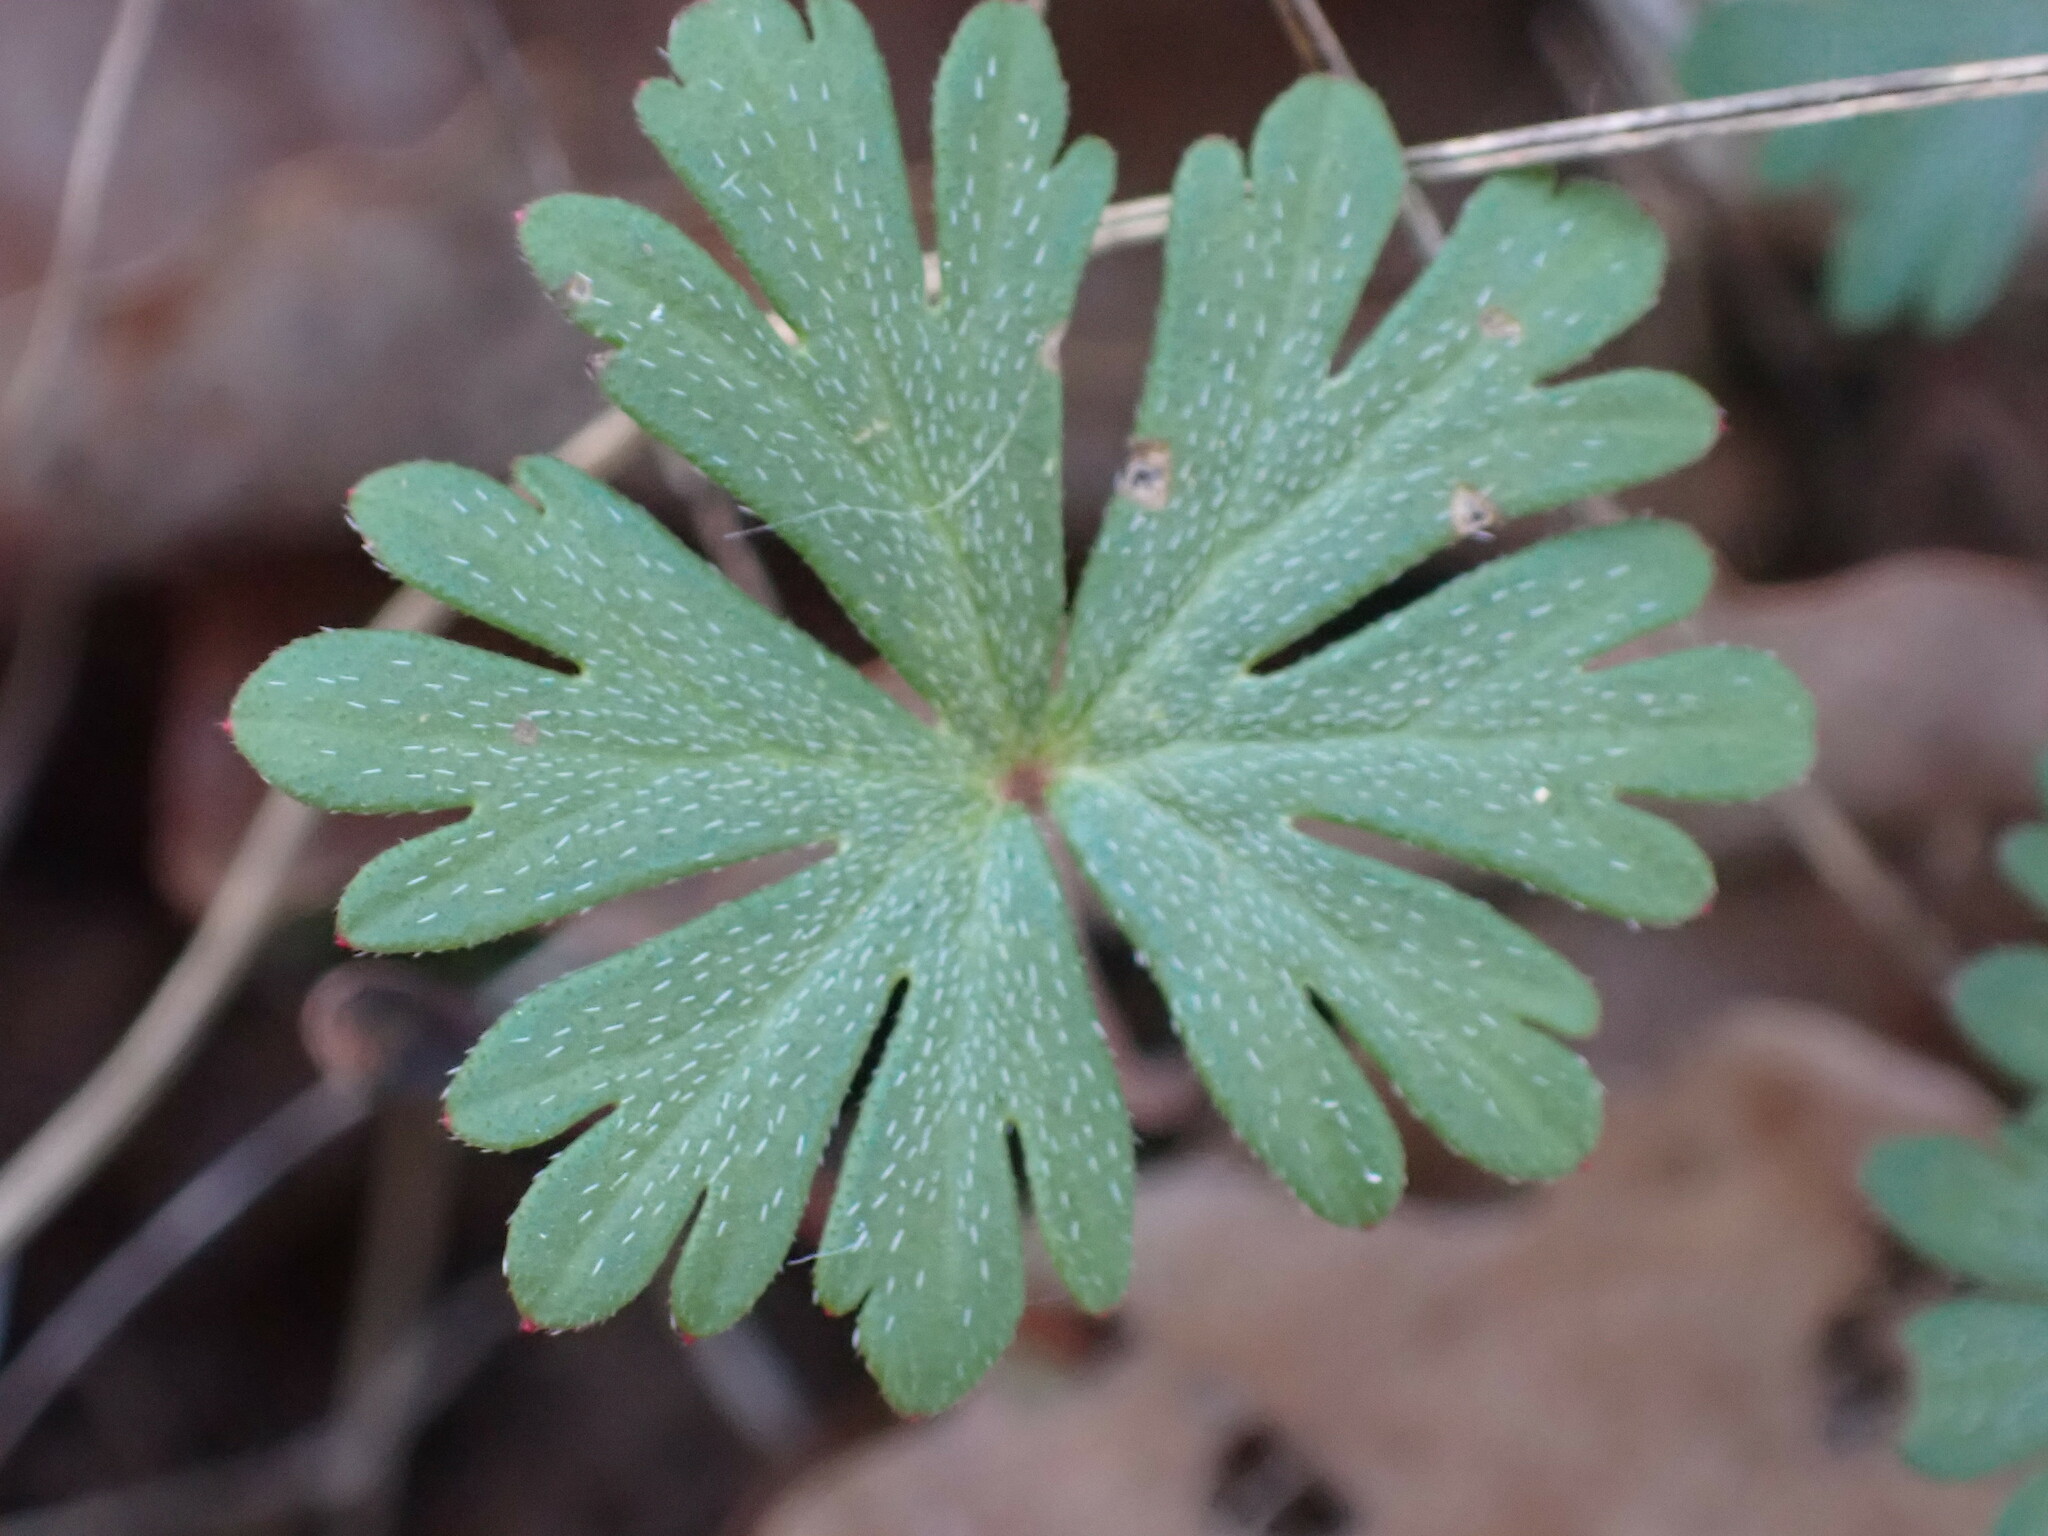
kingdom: Plantae
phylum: Tracheophyta
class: Magnoliopsida
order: Geraniales
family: Geraniaceae
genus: Geranium
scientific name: Geranium columbinum
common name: Long-stalked crane's-bill
